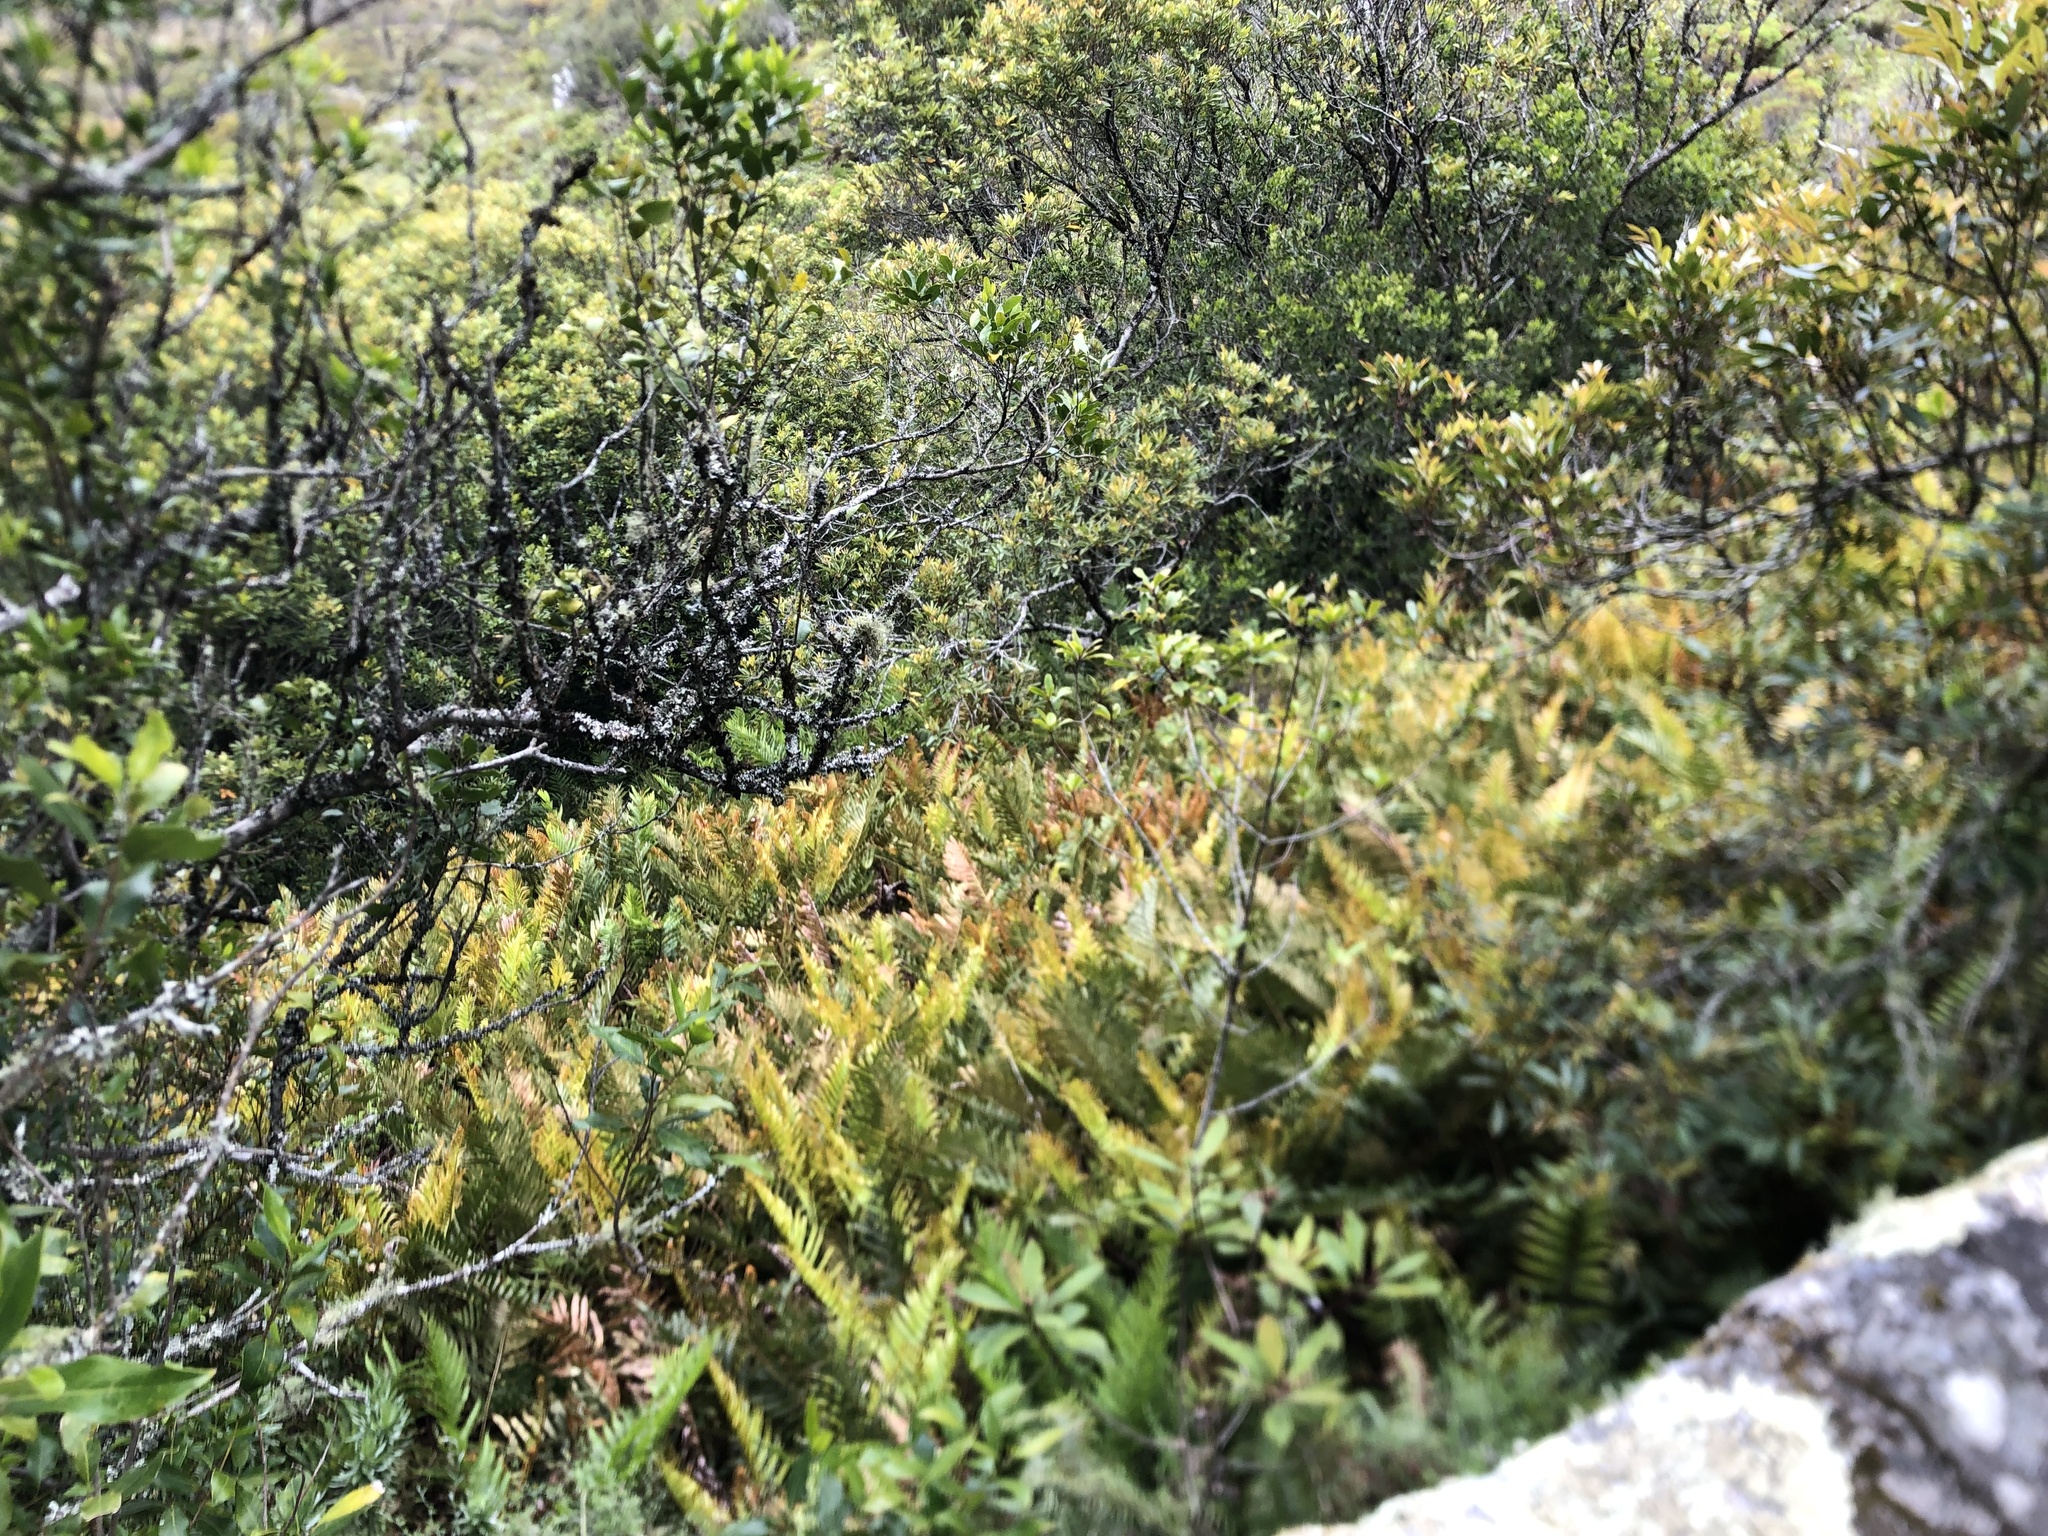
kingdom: Plantae
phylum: Tracheophyta
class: Polypodiopsida
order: Polypodiales
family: Blechnaceae
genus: Lomariocycas
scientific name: Lomariocycas tabularis
